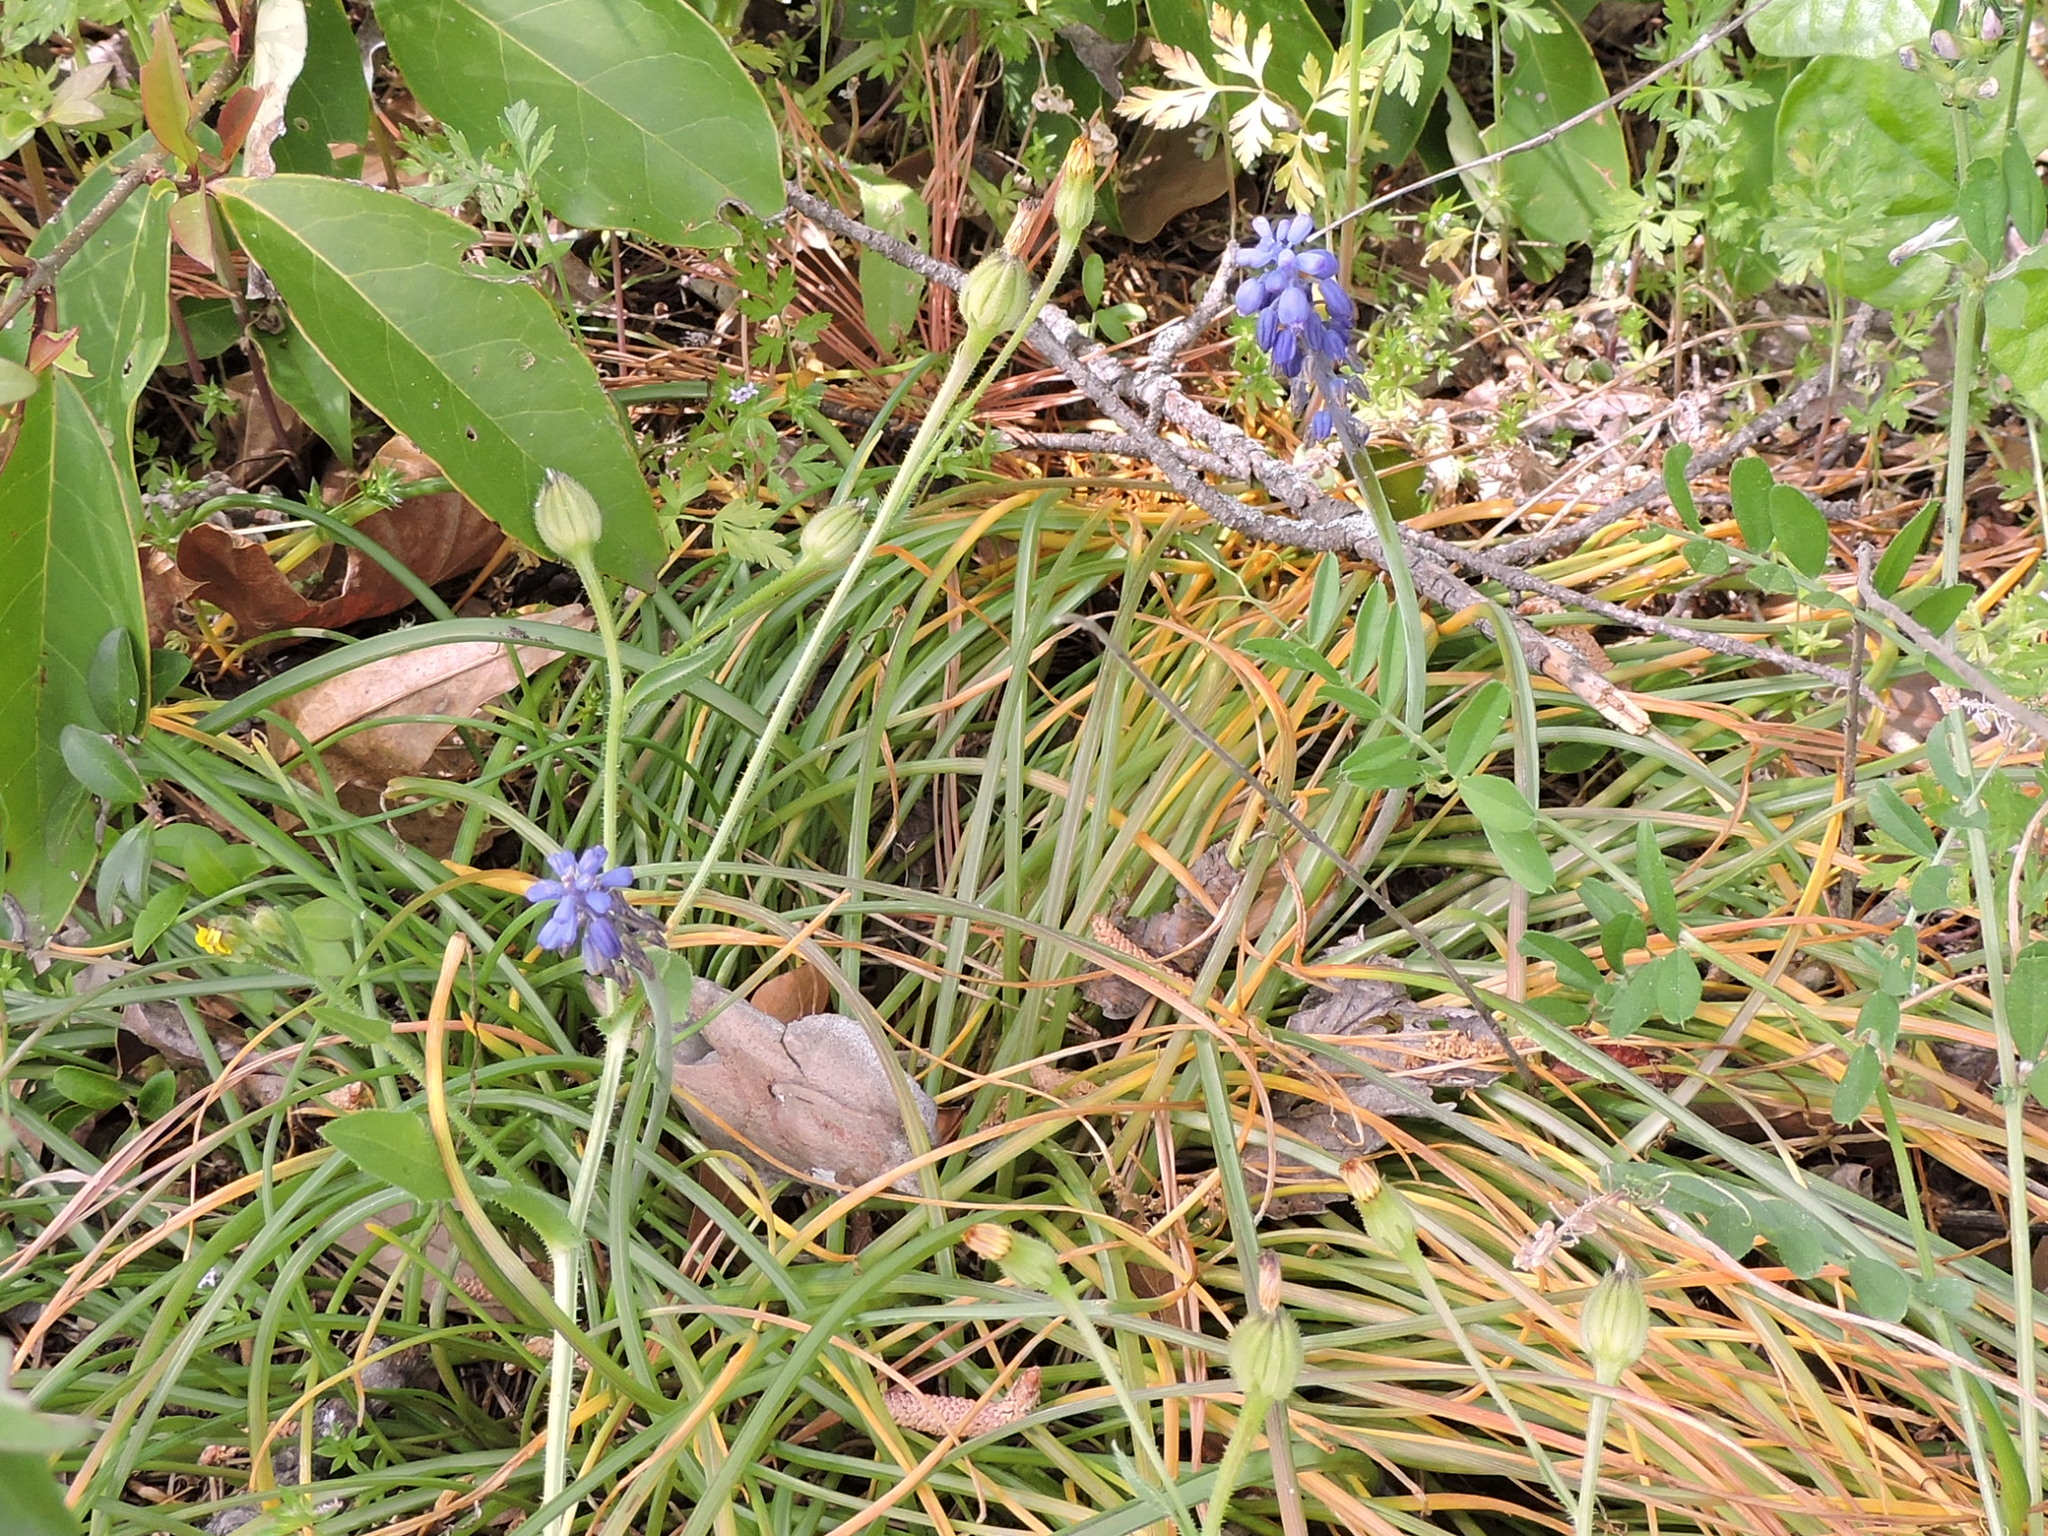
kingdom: Plantae
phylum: Tracheophyta
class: Liliopsida
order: Asparagales
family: Asparagaceae
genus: Muscari
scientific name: Muscari neglectum
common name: Grape-hyacinth
